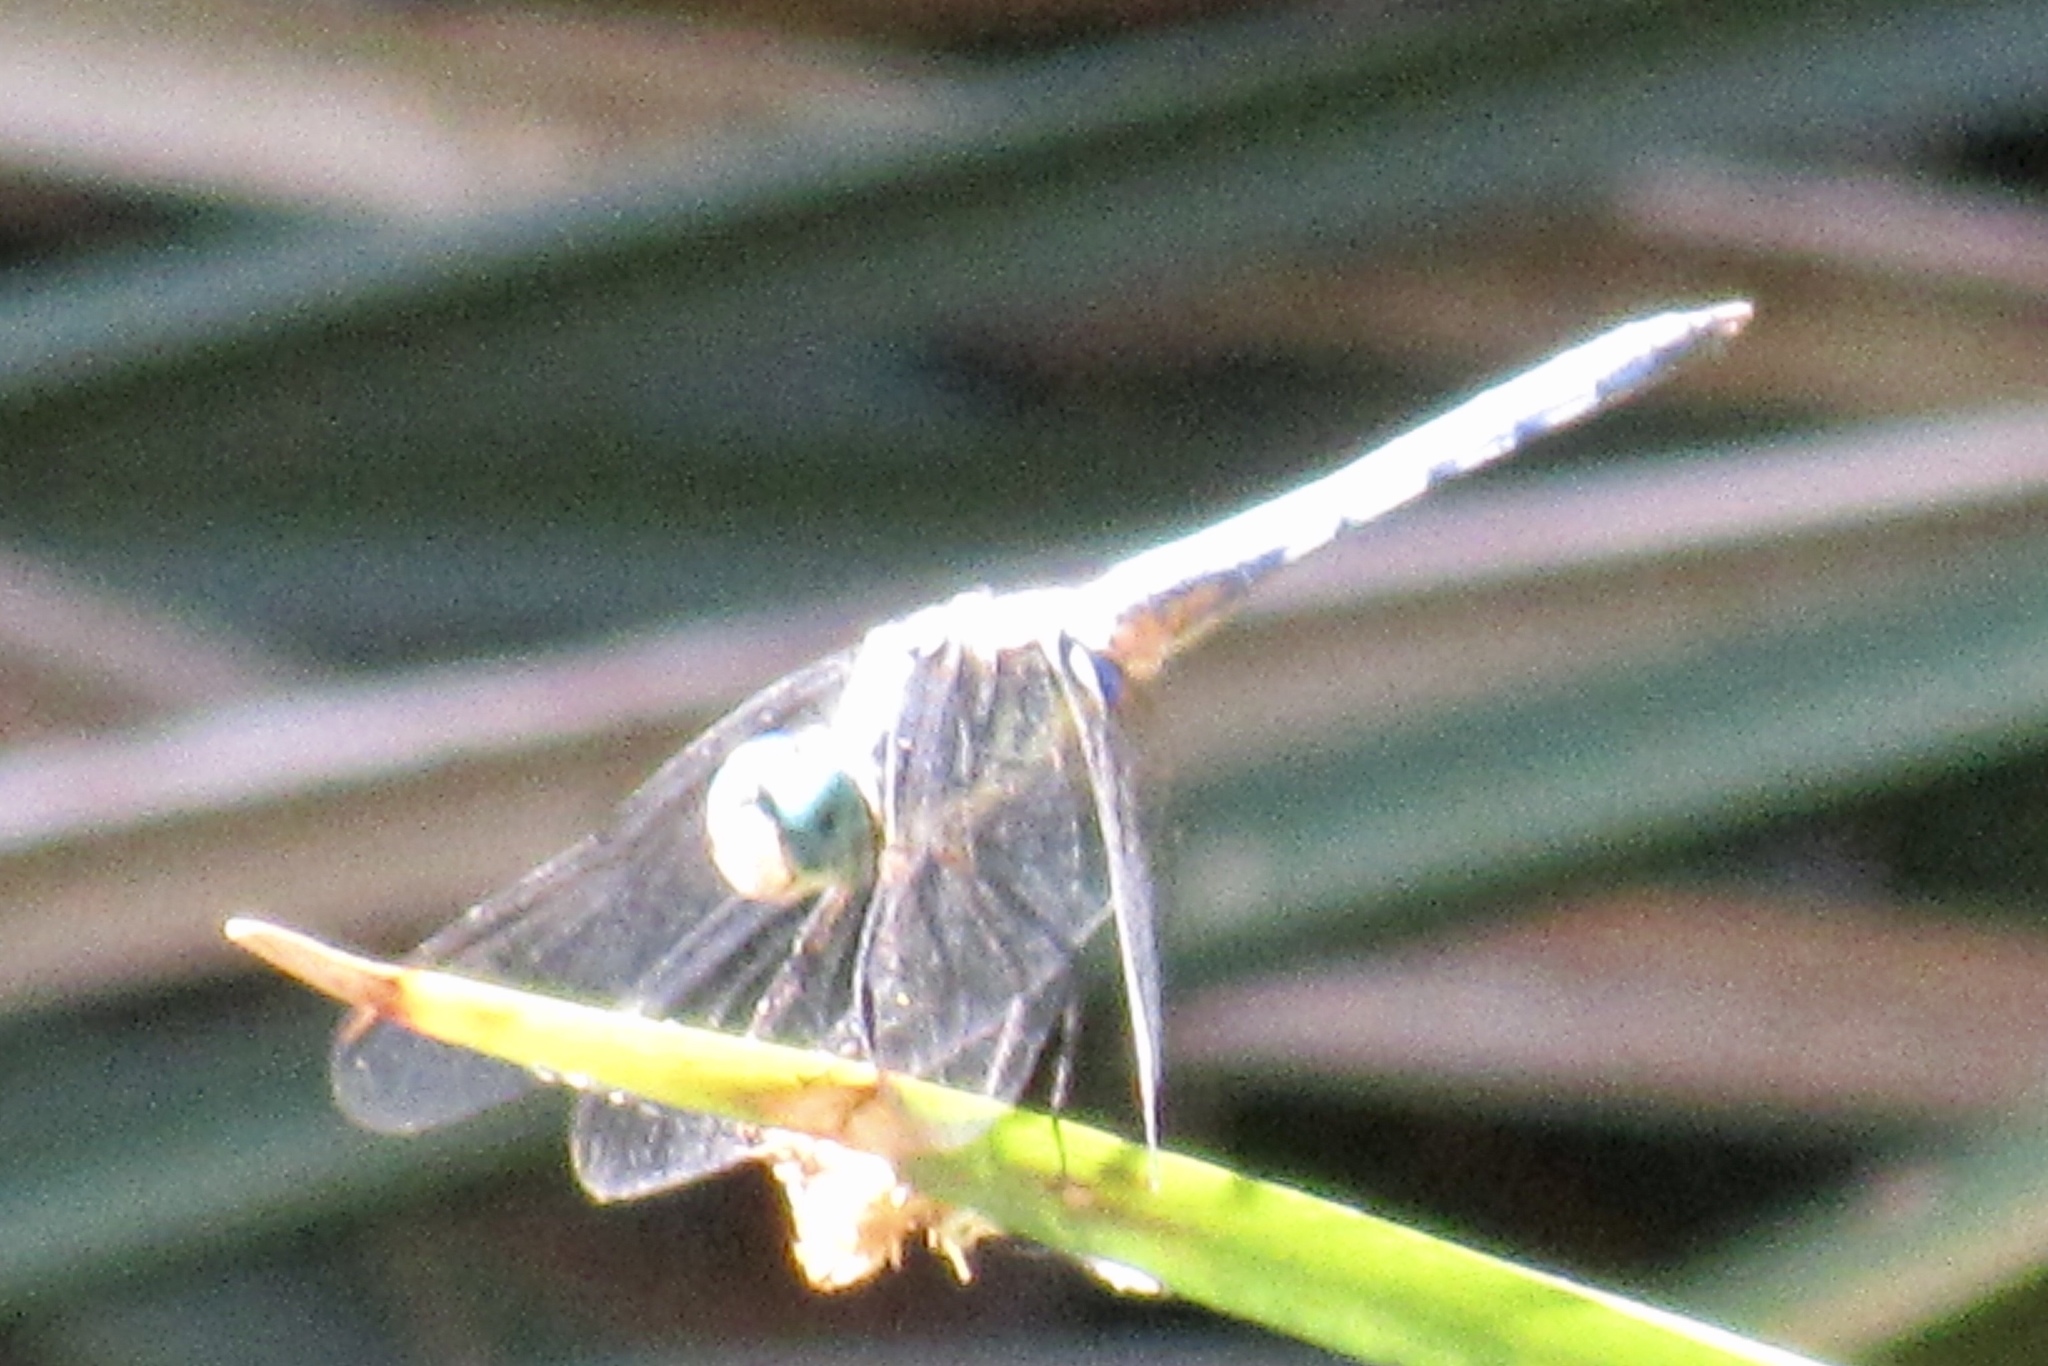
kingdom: Animalia
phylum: Arthropoda
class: Insecta
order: Odonata
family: Libellulidae
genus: Pachydiplax
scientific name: Pachydiplax longipennis
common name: Blue dasher
